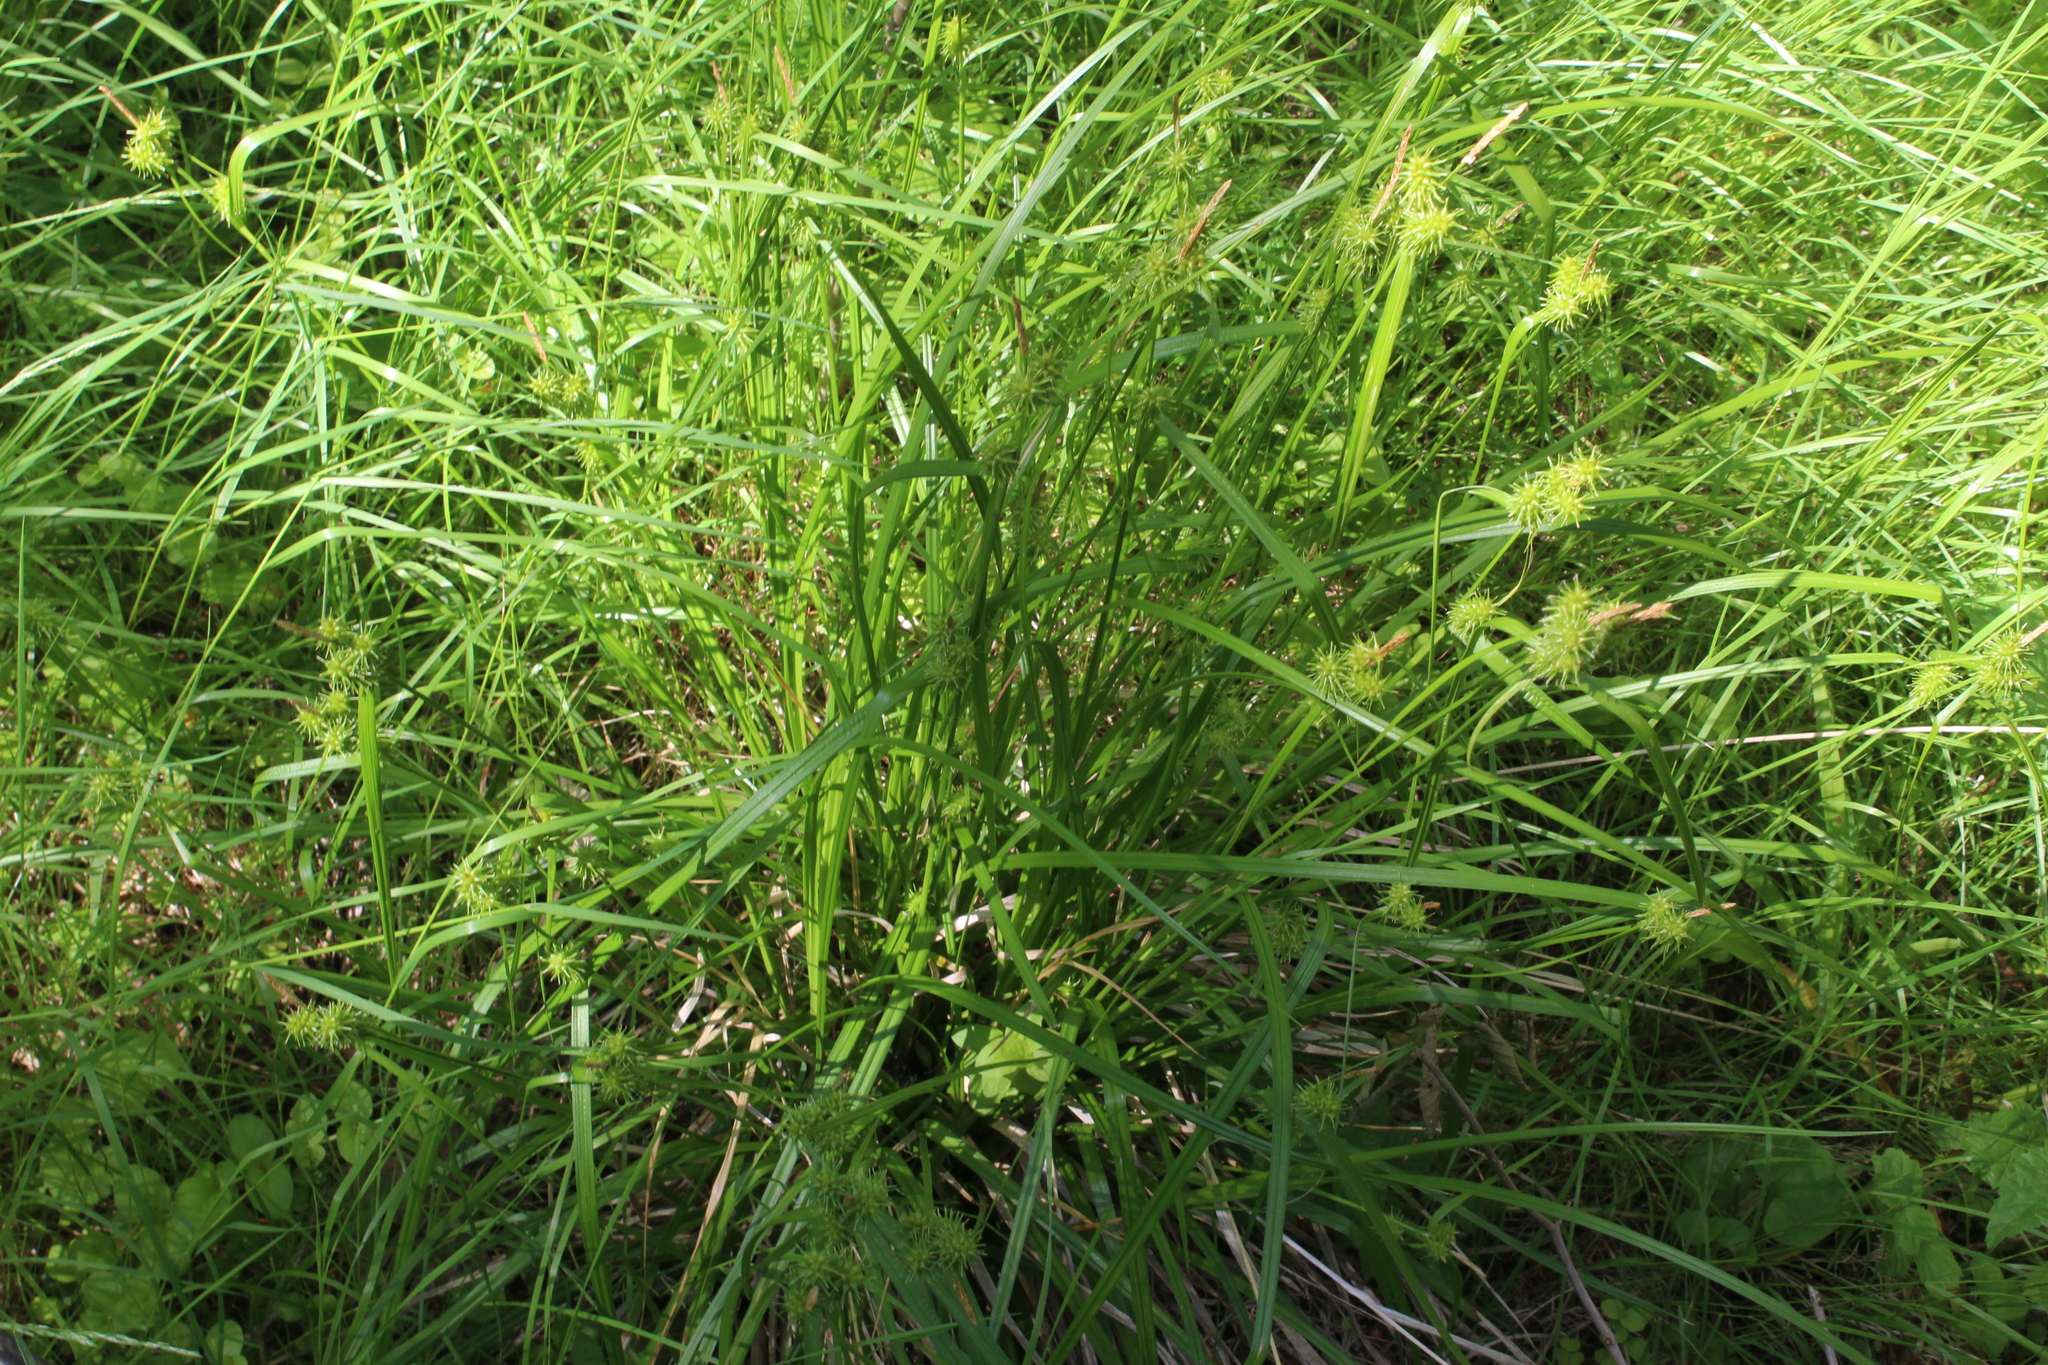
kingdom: Plantae
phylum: Tracheophyta
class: Liliopsida
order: Poales
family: Cyperaceae
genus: Carex
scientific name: Carex flava
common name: Large yellow-sedge
